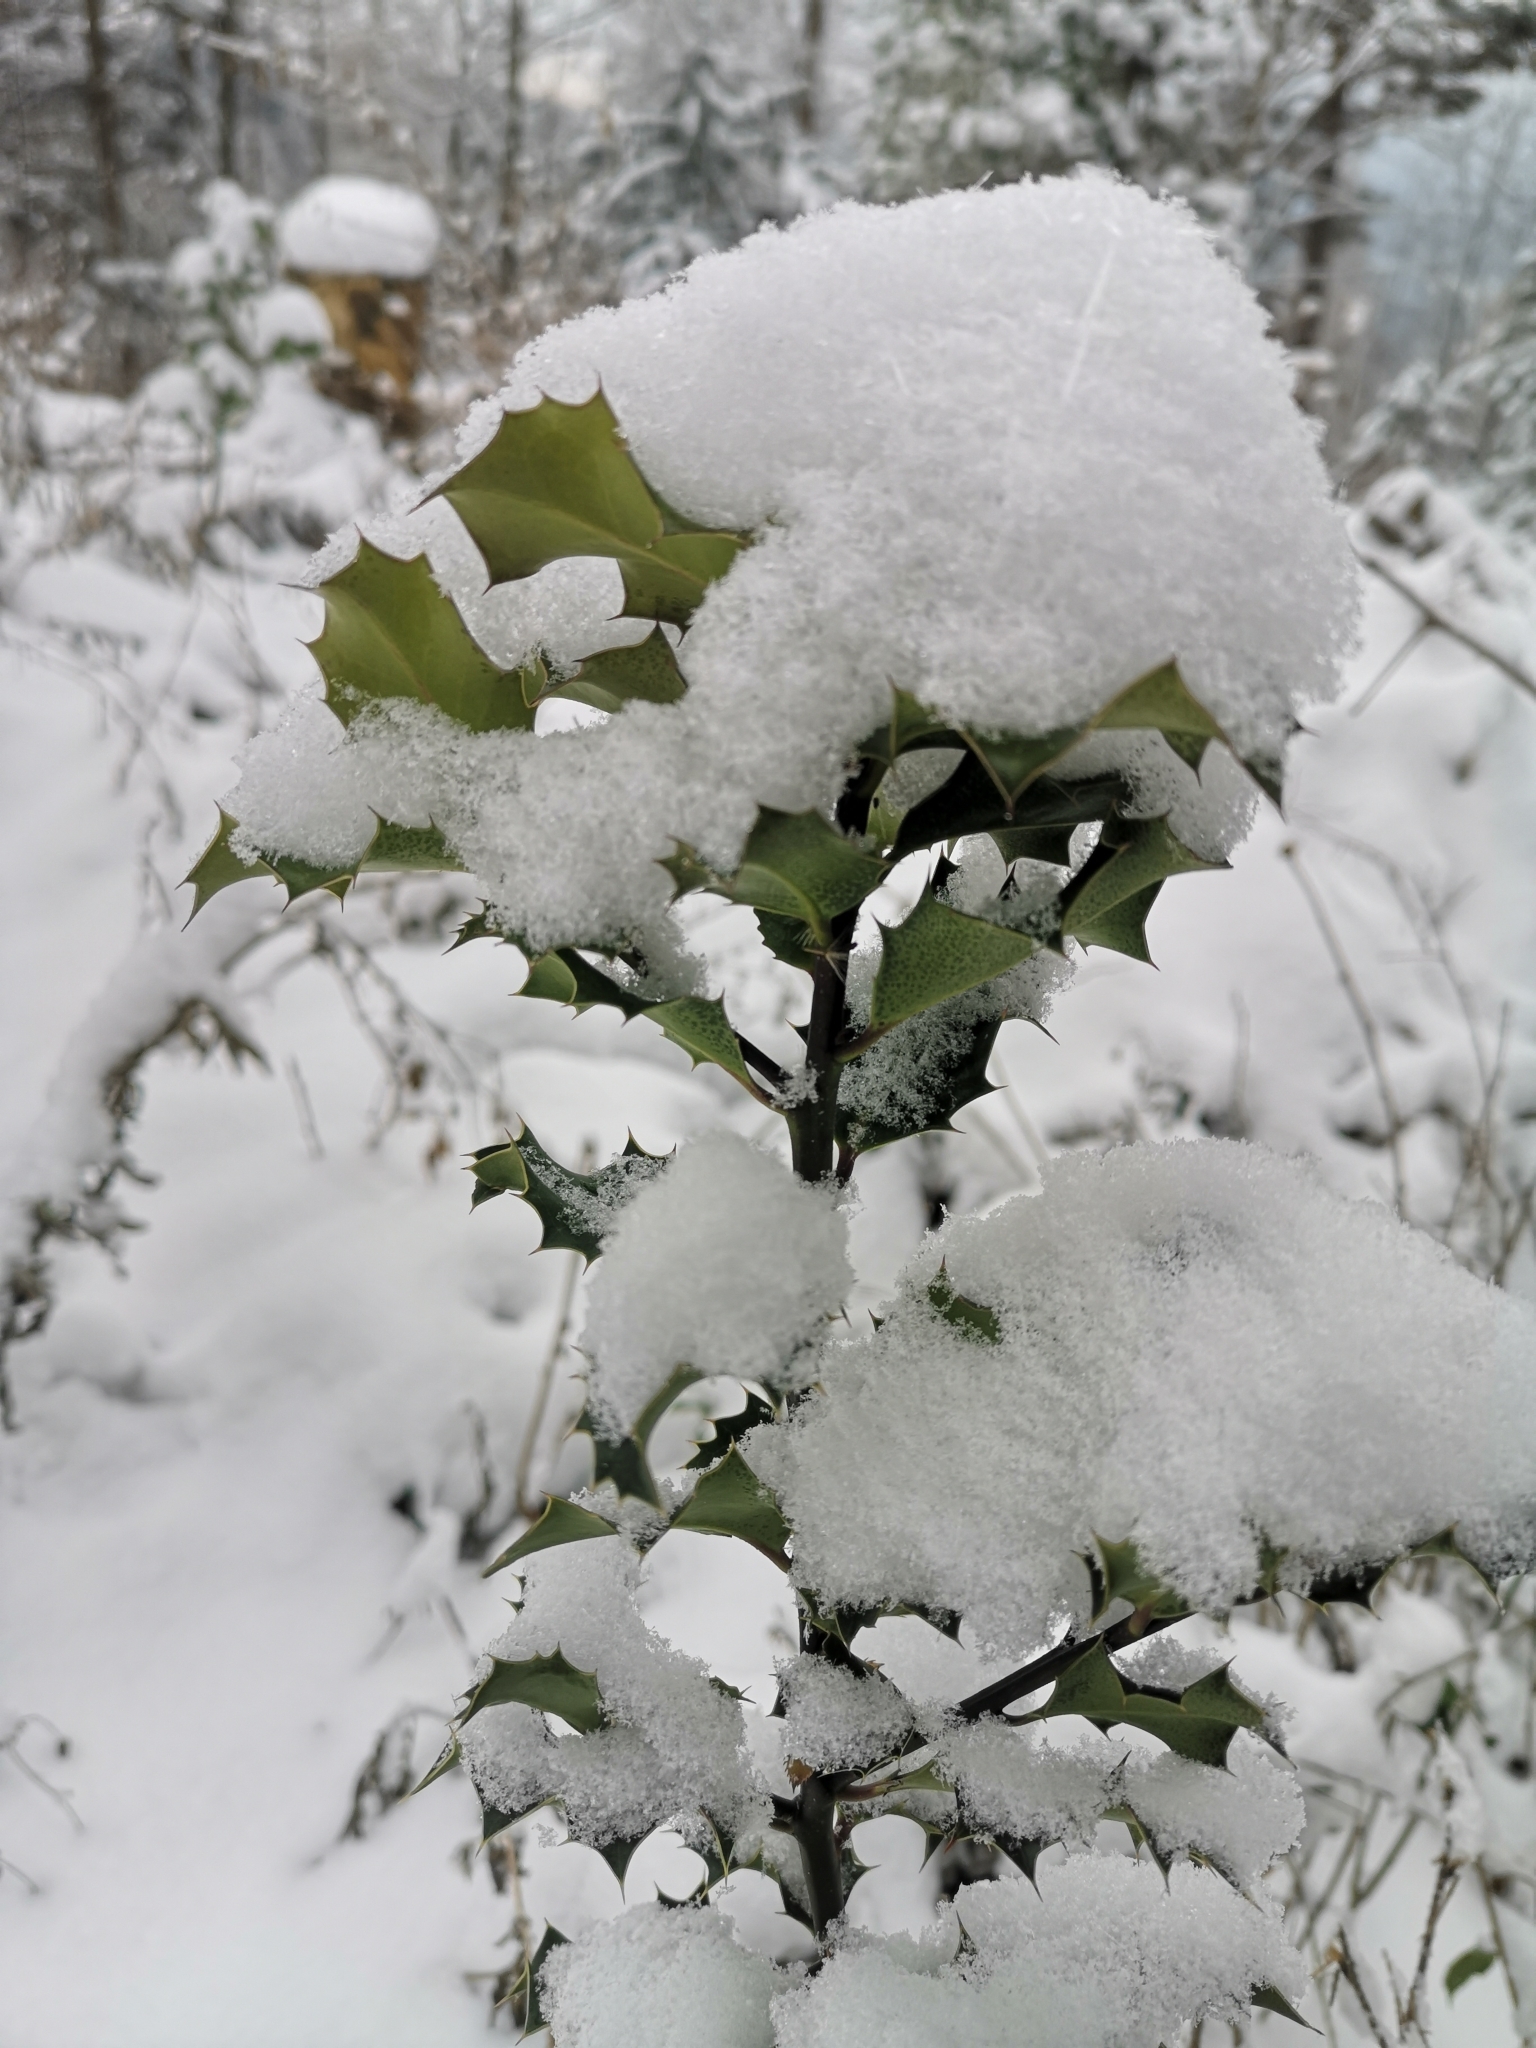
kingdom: Plantae
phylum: Tracheophyta
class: Magnoliopsida
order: Aquifoliales
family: Aquifoliaceae
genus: Ilex
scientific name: Ilex aquifolium
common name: English holly
